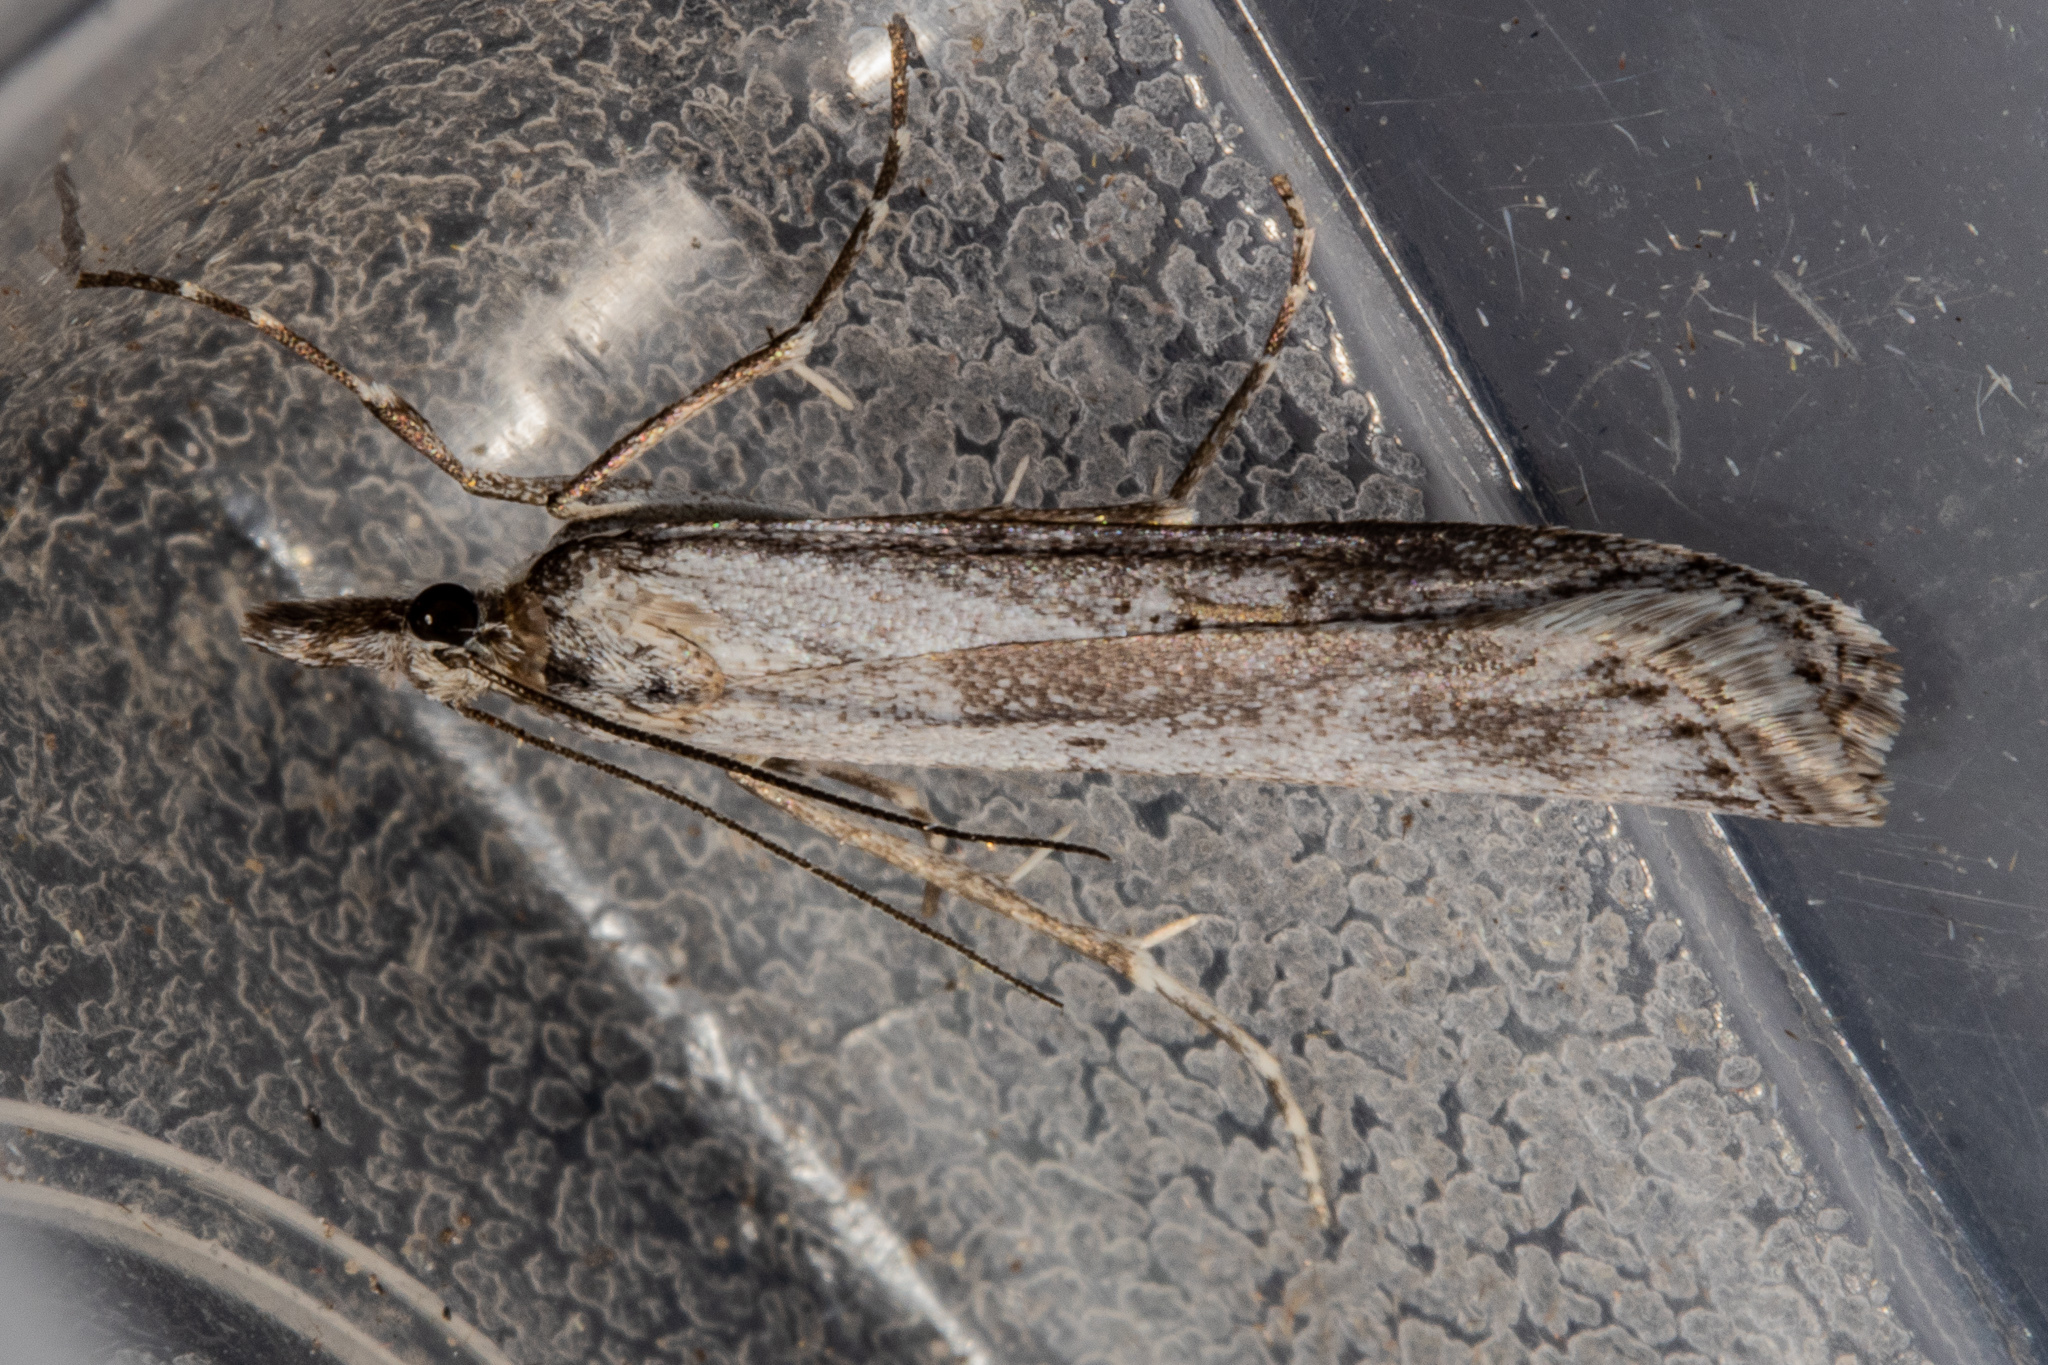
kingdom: Animalia
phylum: Arthropoda
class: Insecta
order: Lepidoptera
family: Crambidae
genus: Eudonia
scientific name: Eudonia psammitis
